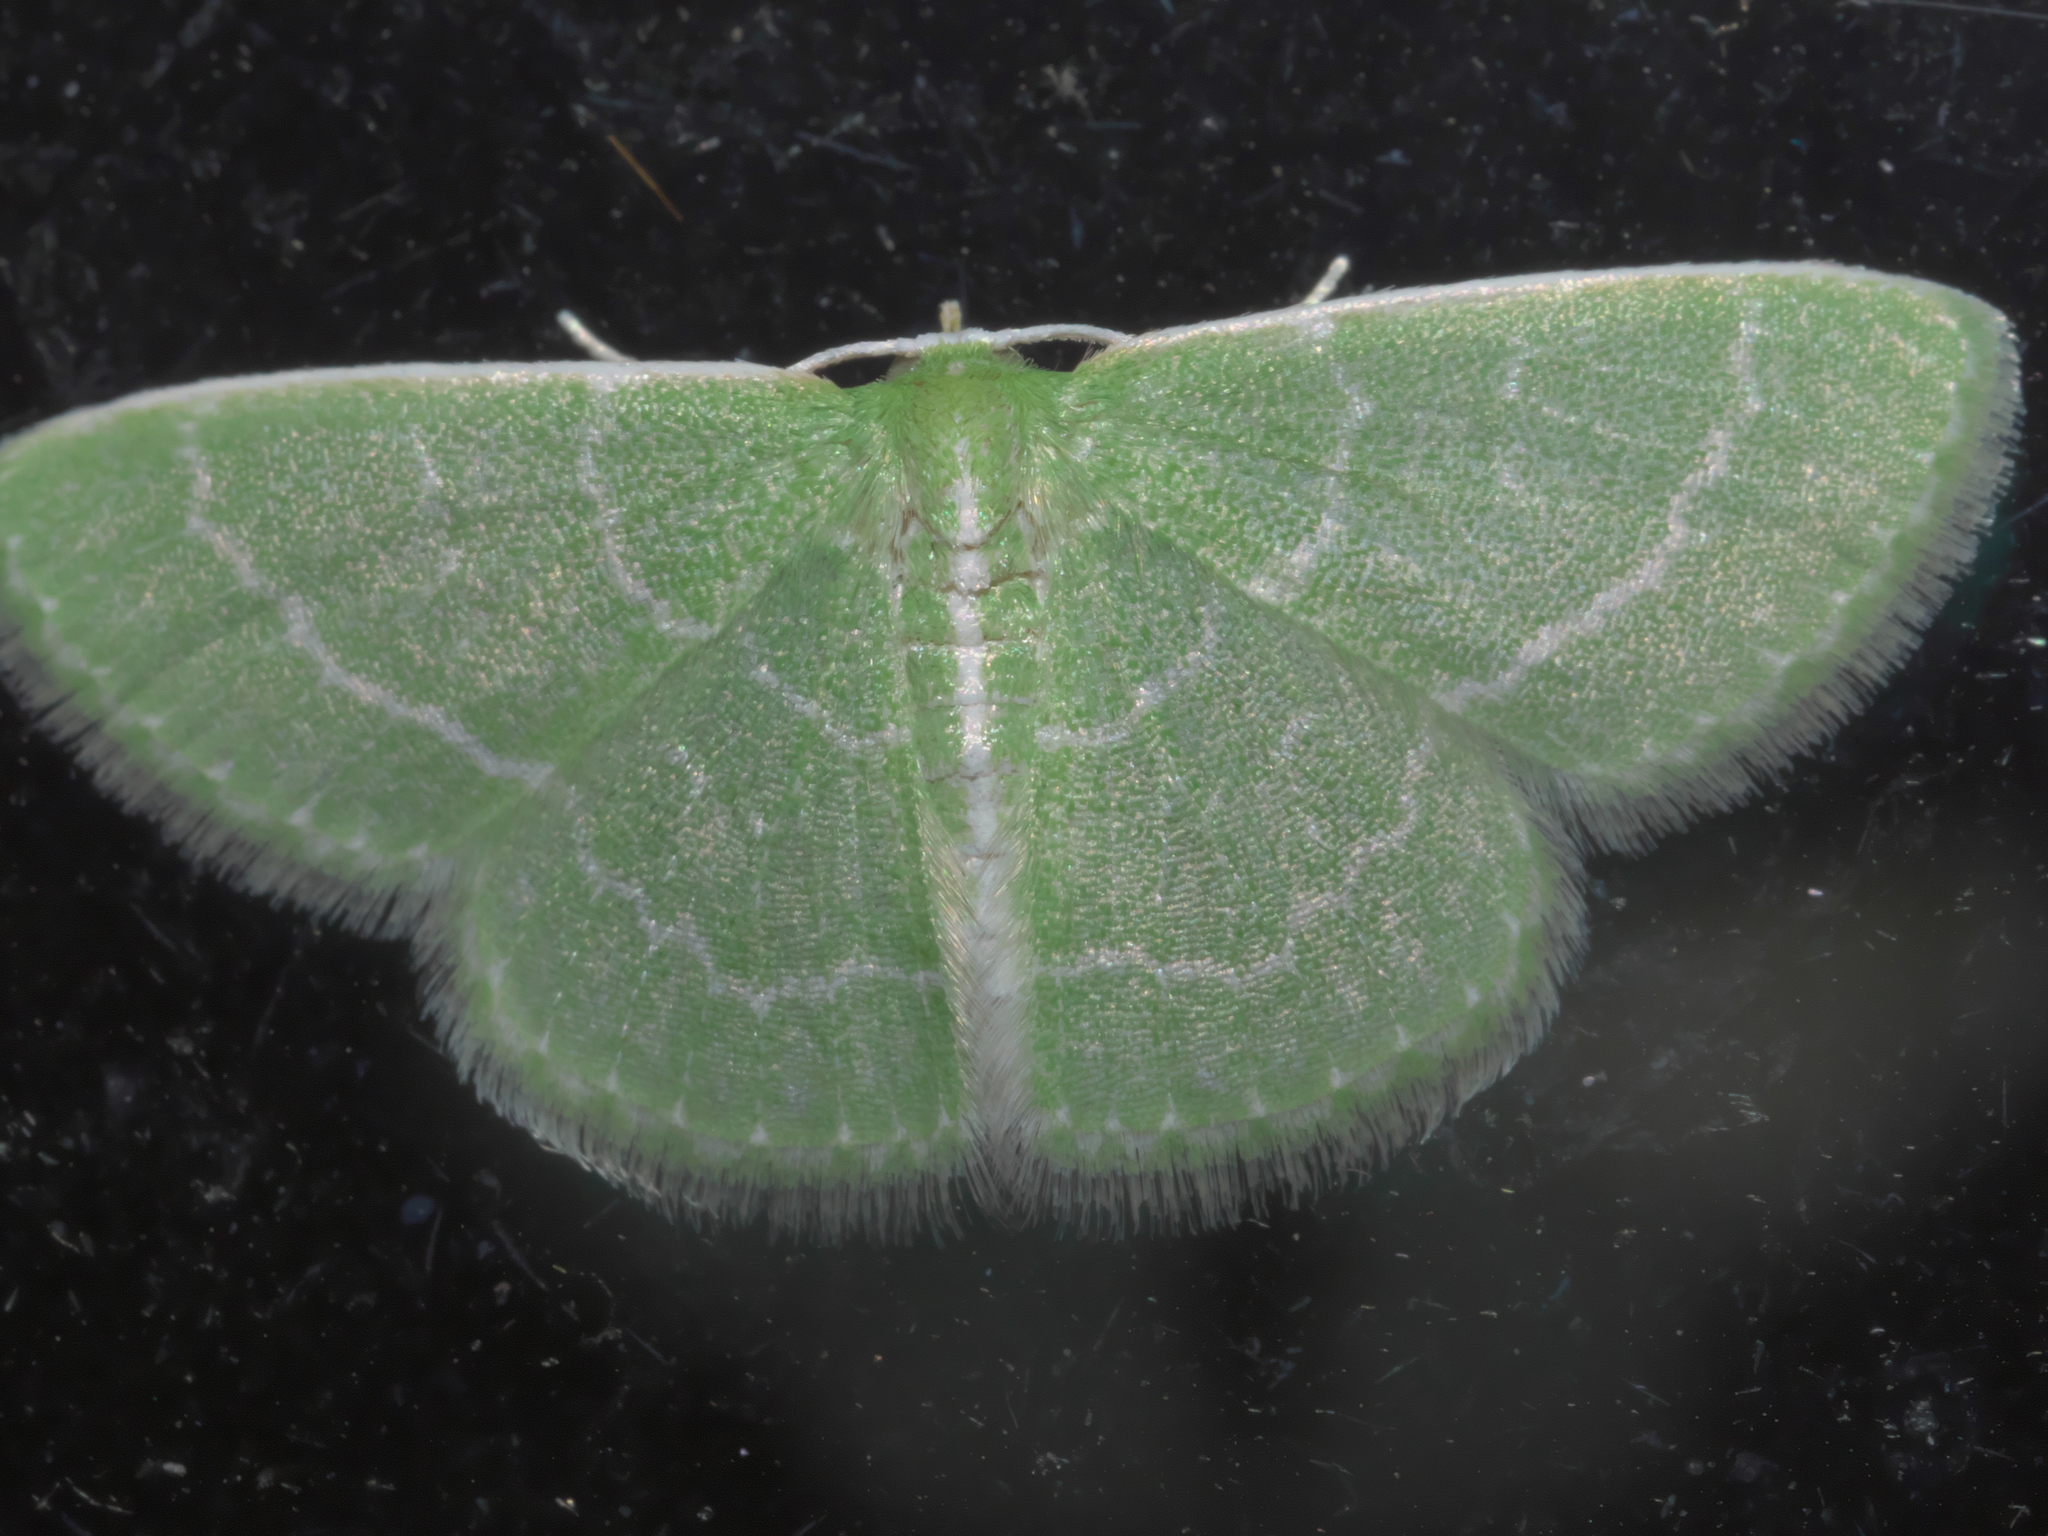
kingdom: Animalia
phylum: Arthropoda
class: Insecta
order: Lepidoptera
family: Geometridae
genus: Synchlora
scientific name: Synchlora aerata
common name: Wavy-lined emerald
